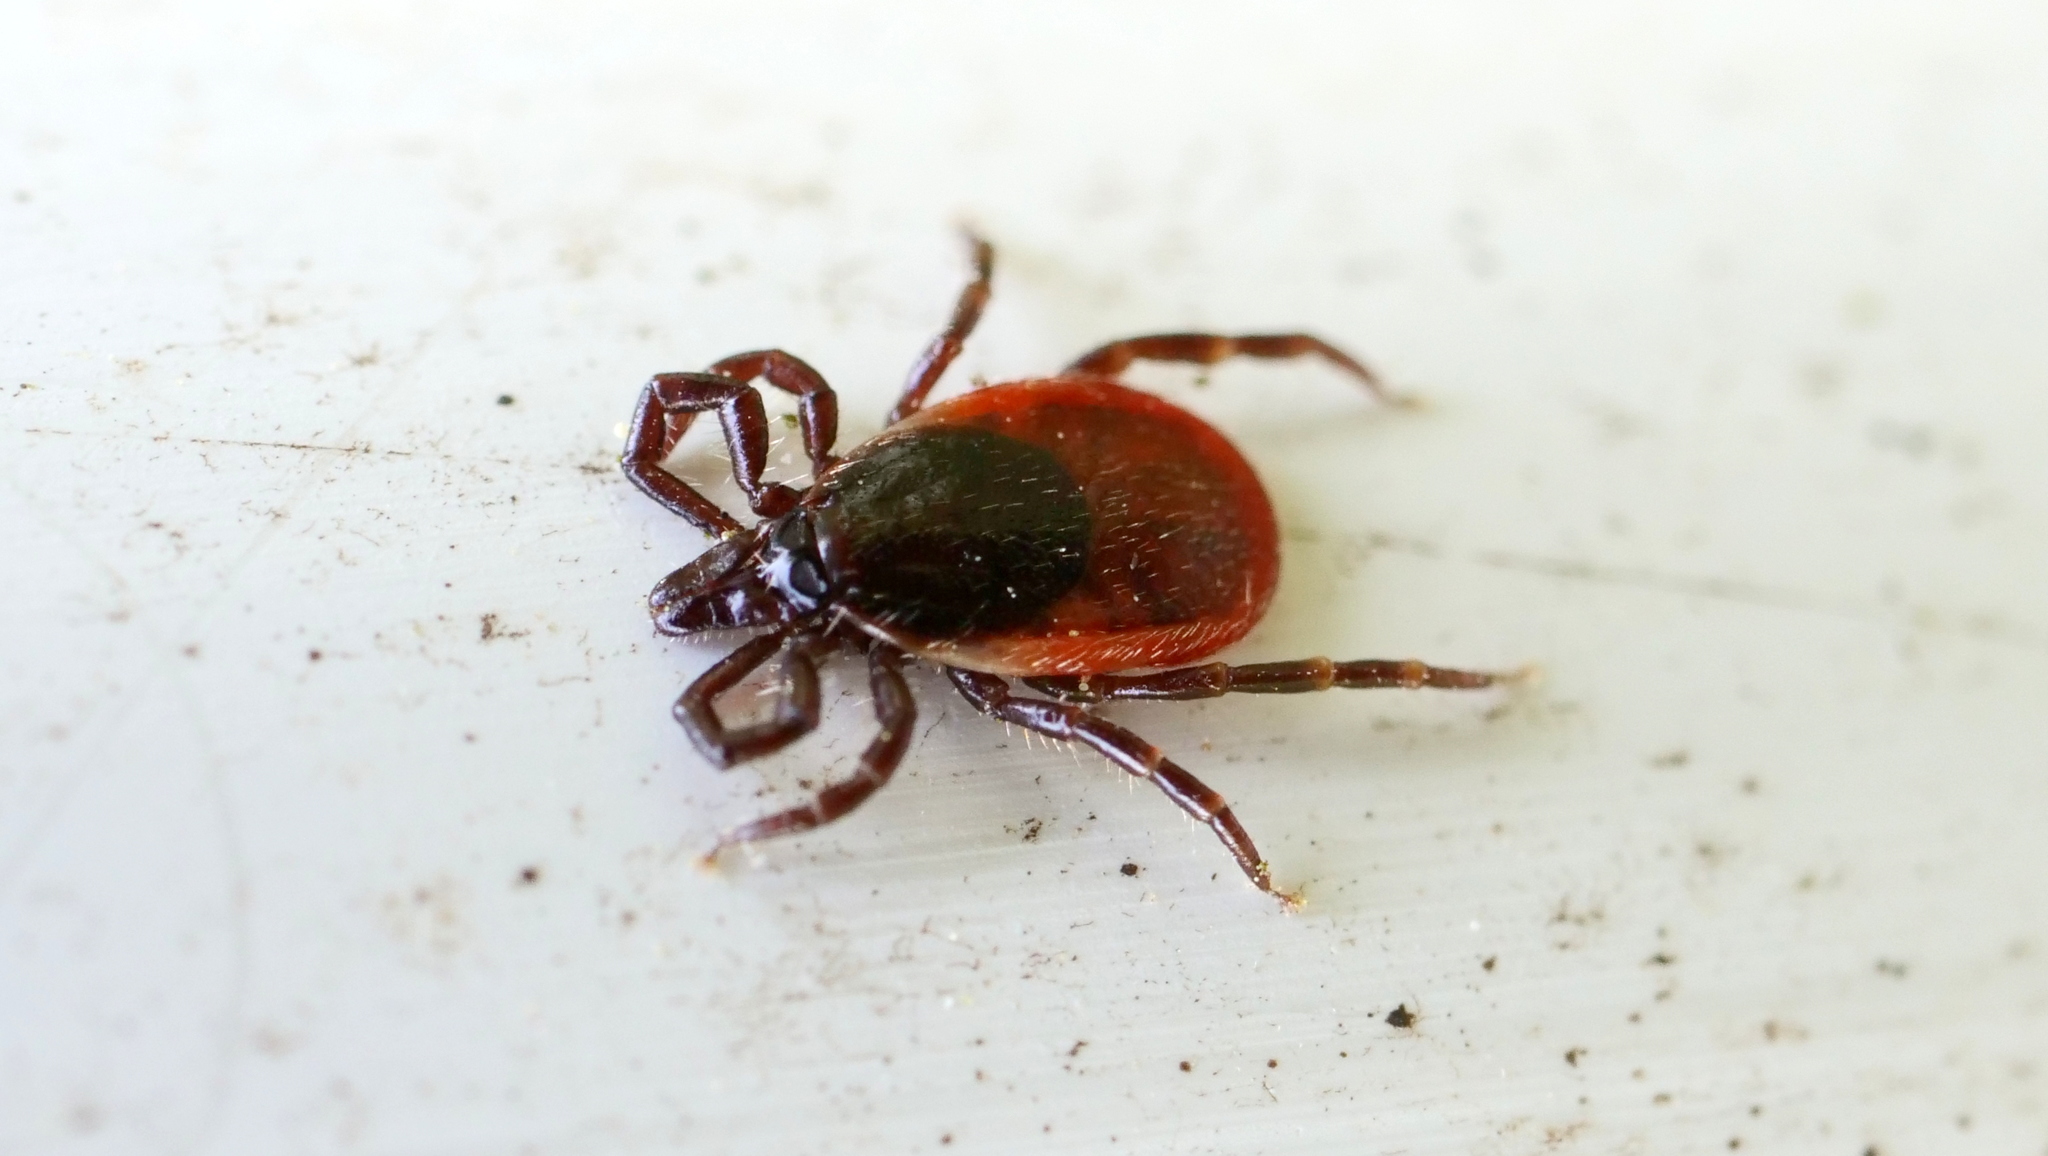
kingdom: Animalia
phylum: Arthropoda
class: Arachnida
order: Ixodida
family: Ixodidae
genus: Ixodes
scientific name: Ixodes ricinus
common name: Castor bean tick
